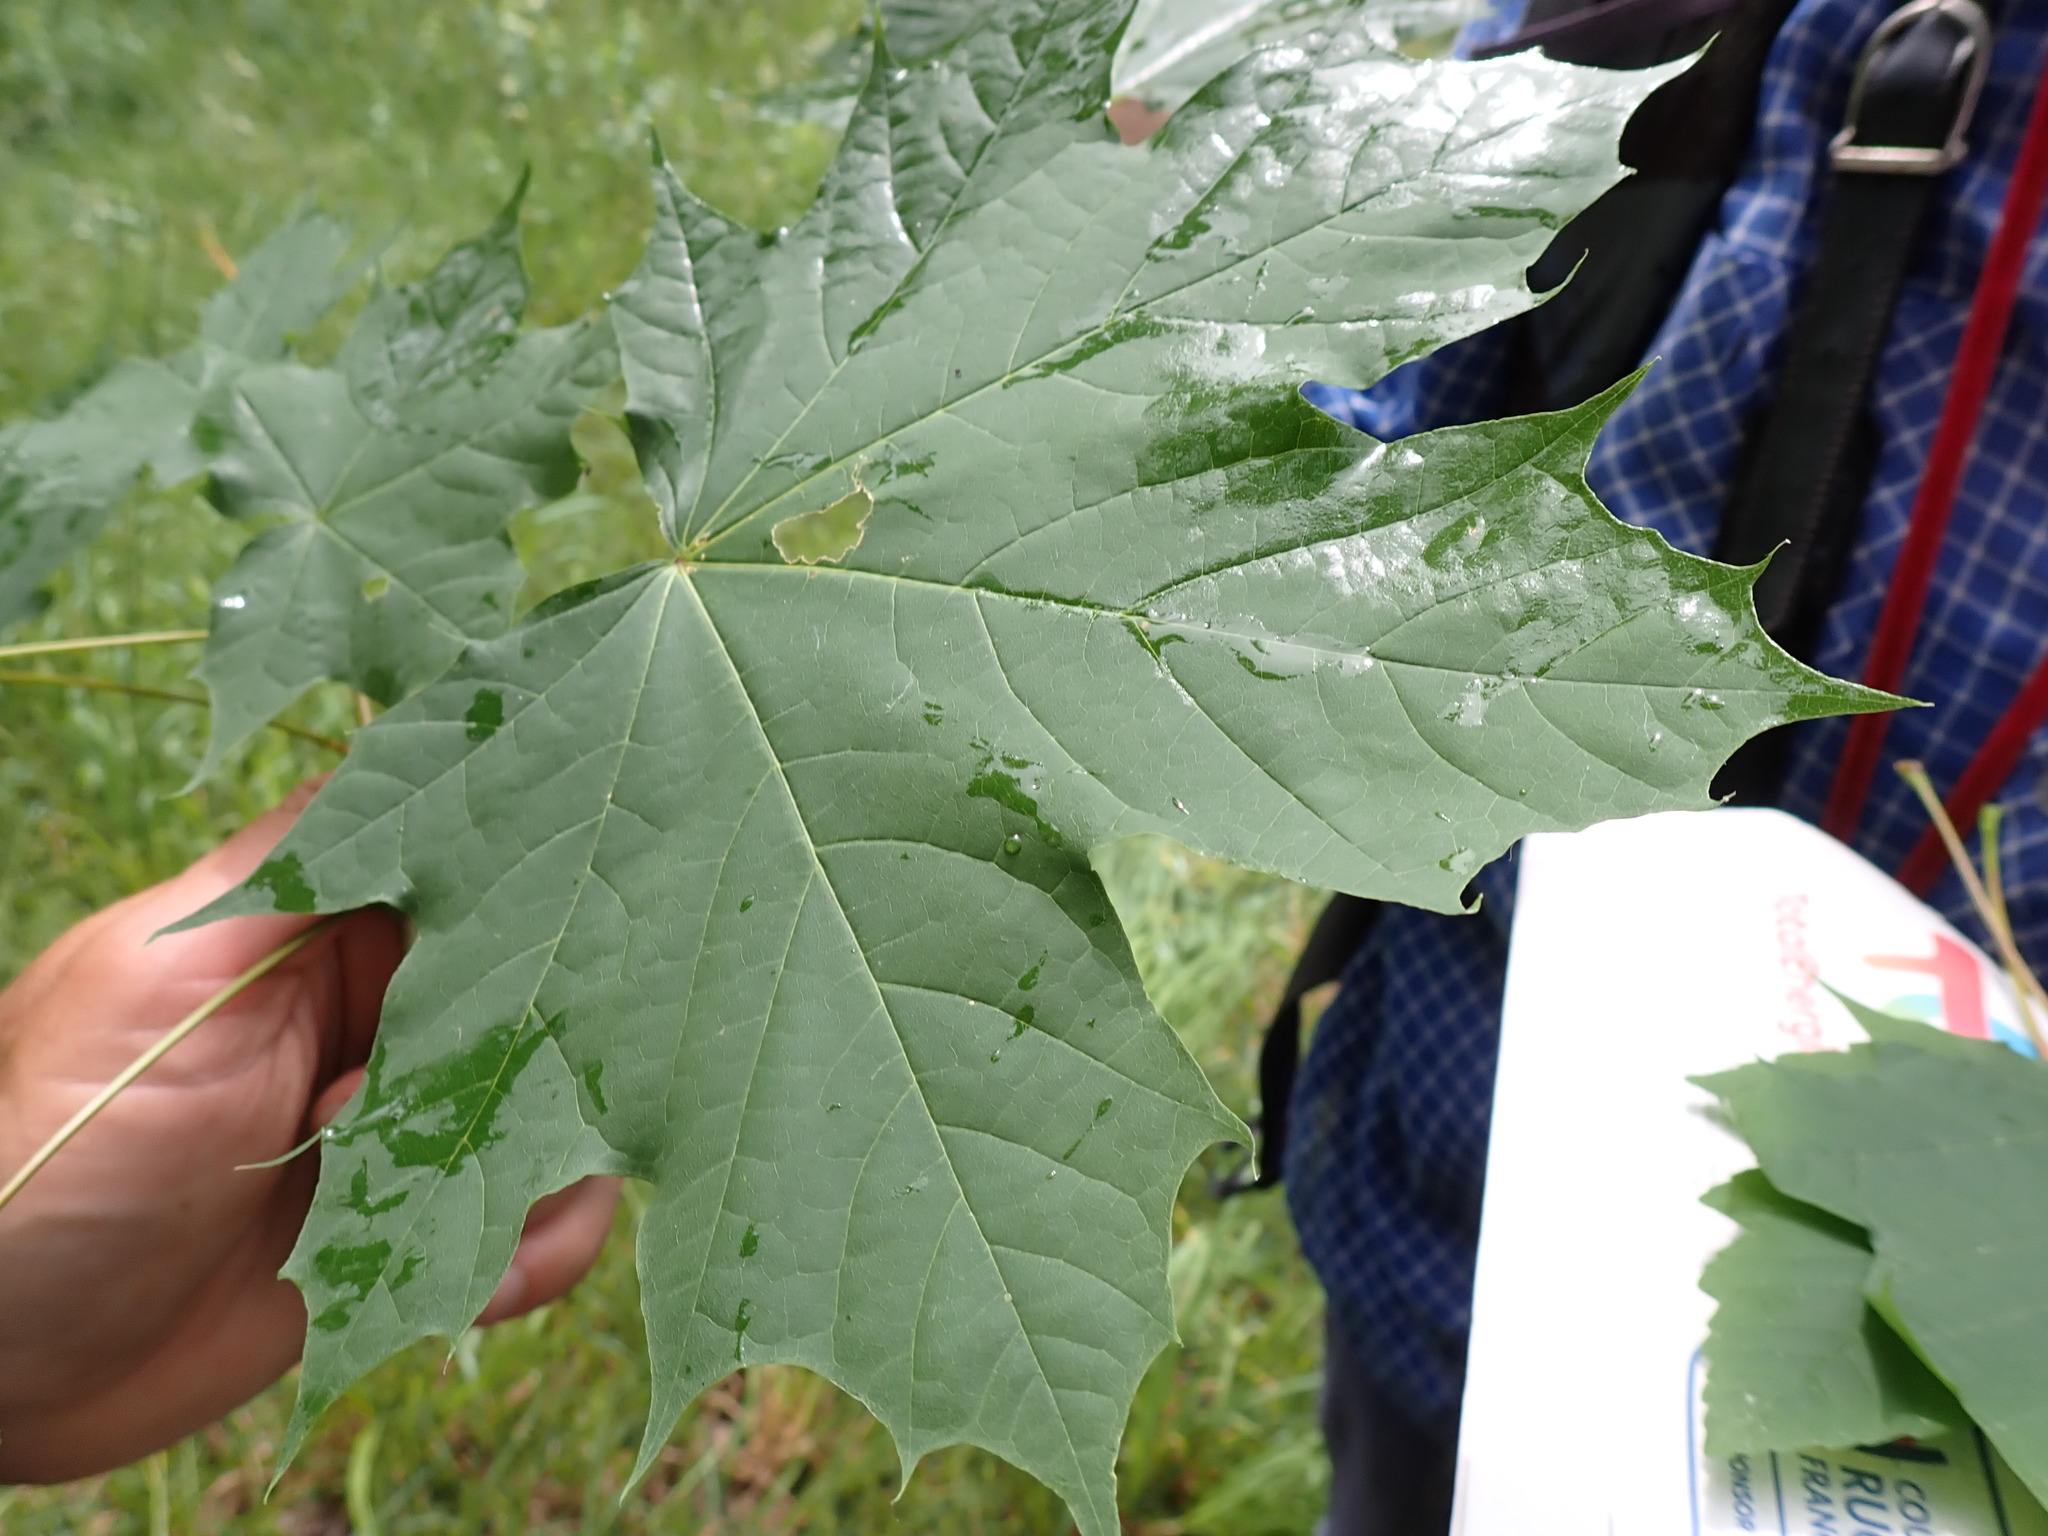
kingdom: Plantae
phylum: Tracheophyta
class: Magnoliopsida
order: Sapindales
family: Sapindaceae
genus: Acer
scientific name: Acer platanoides
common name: Norway maple
